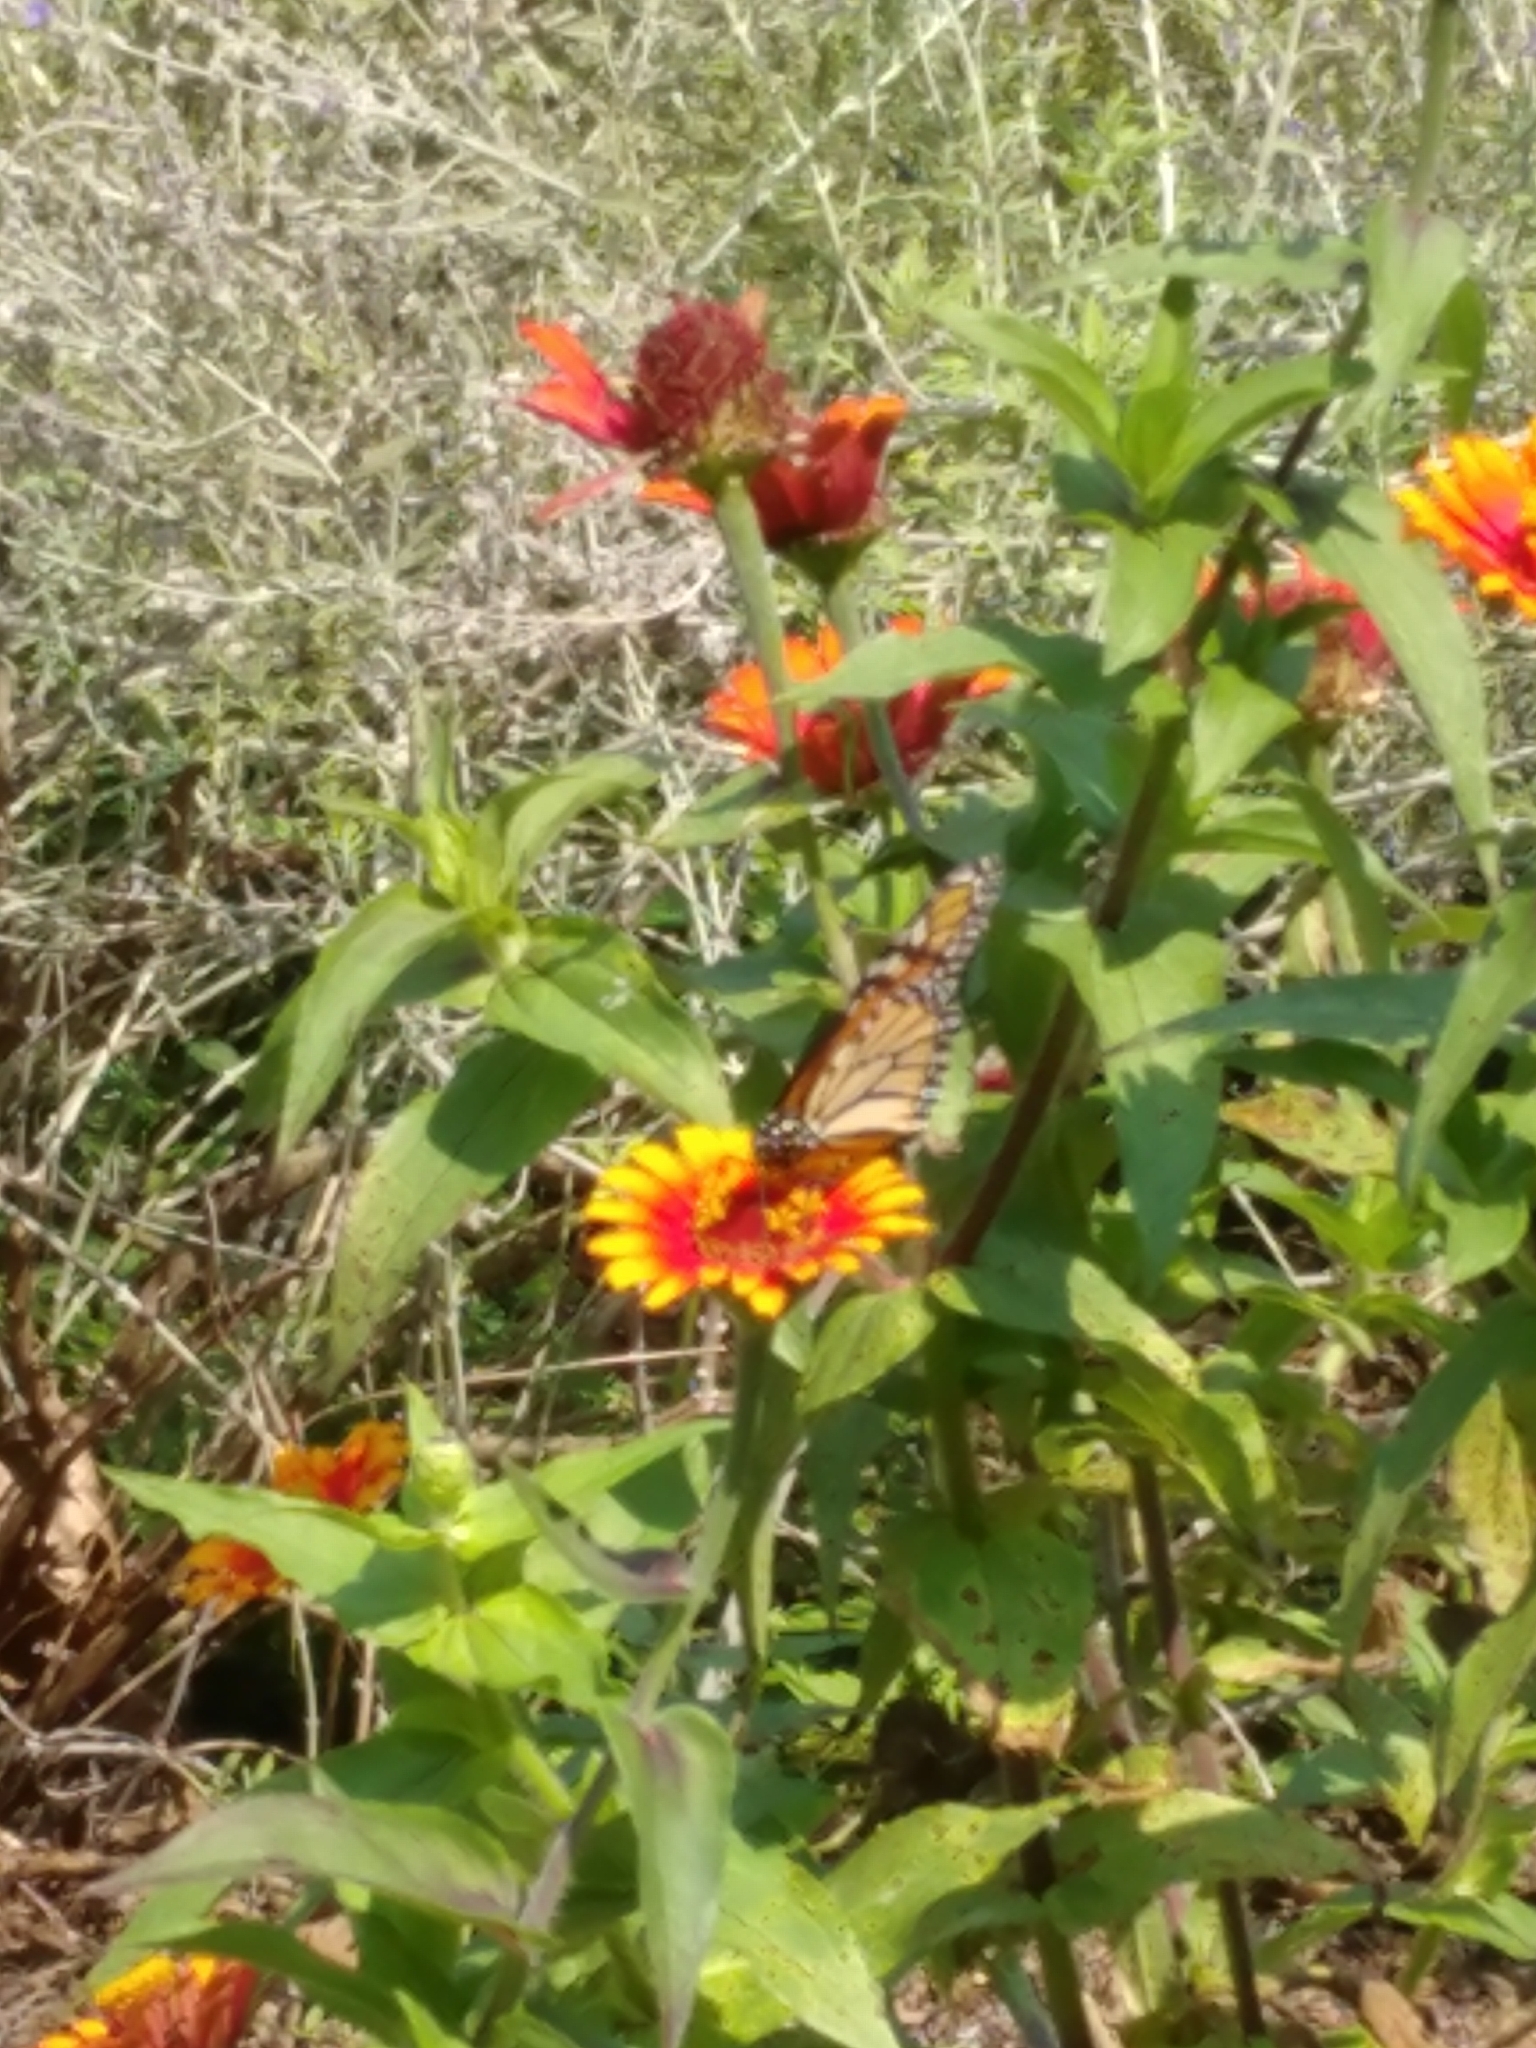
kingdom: Animalia
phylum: Arthropoda
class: Insecta
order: Lepidoptera
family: Nymphalidae
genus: Danaus
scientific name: Danaus plexippus
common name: Monarch
